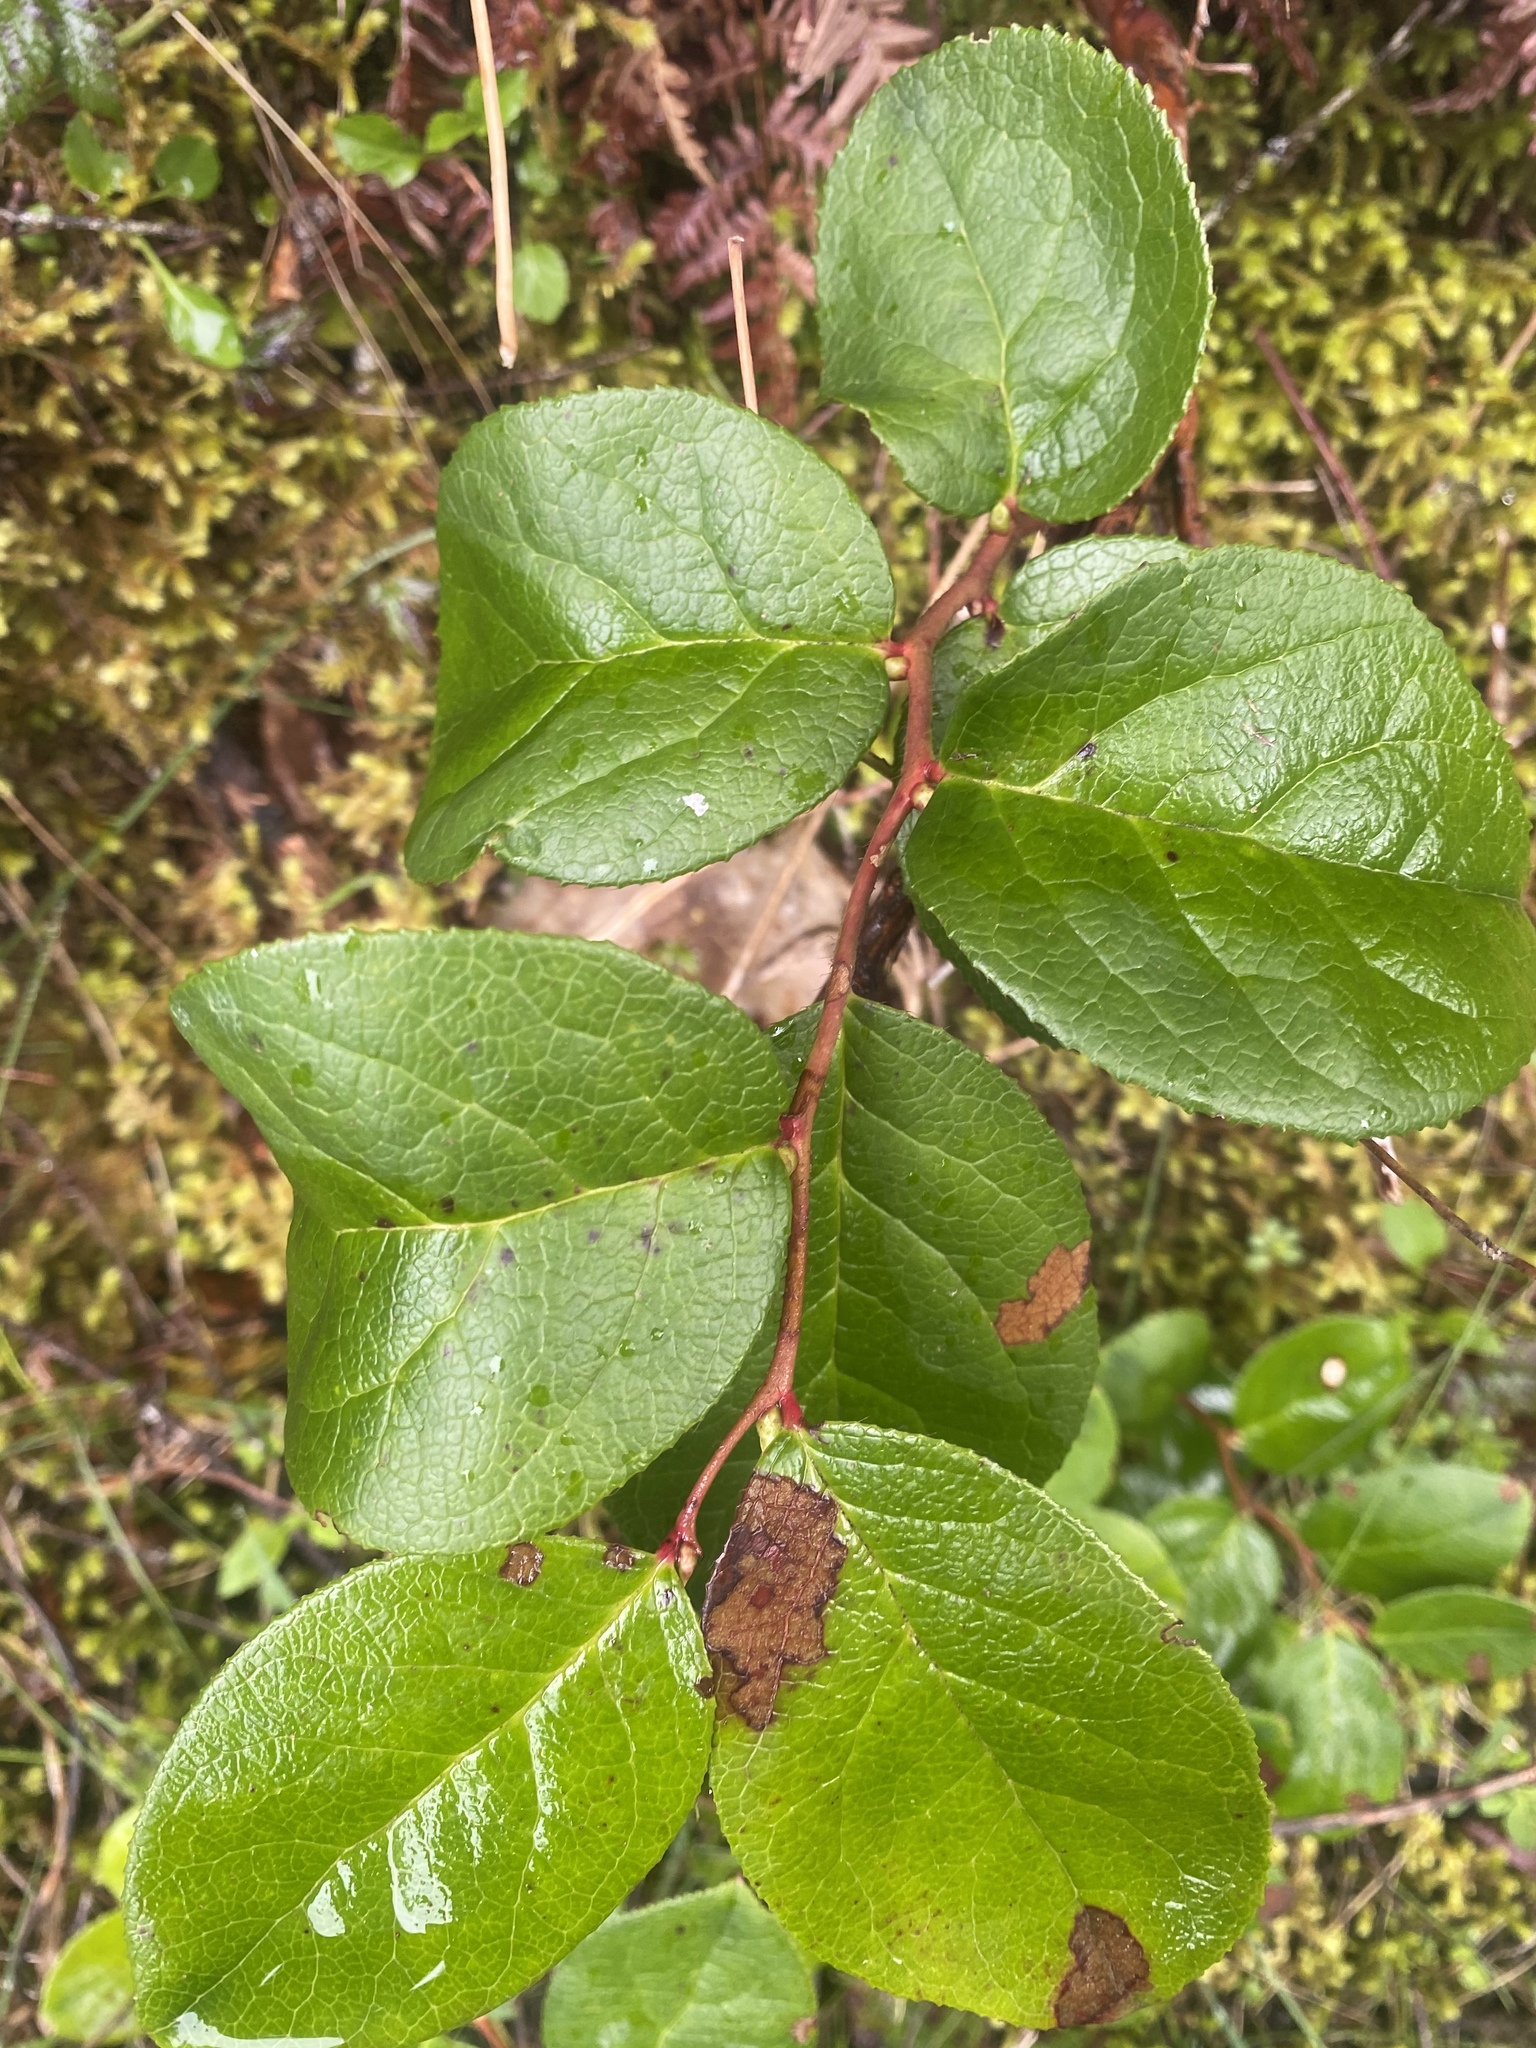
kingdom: Plantae
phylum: Tracheophyta
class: Magnoliopsida
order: Ericales
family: Ericaceae
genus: Gaultheria
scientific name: Gaultheria shallon
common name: Shallon
